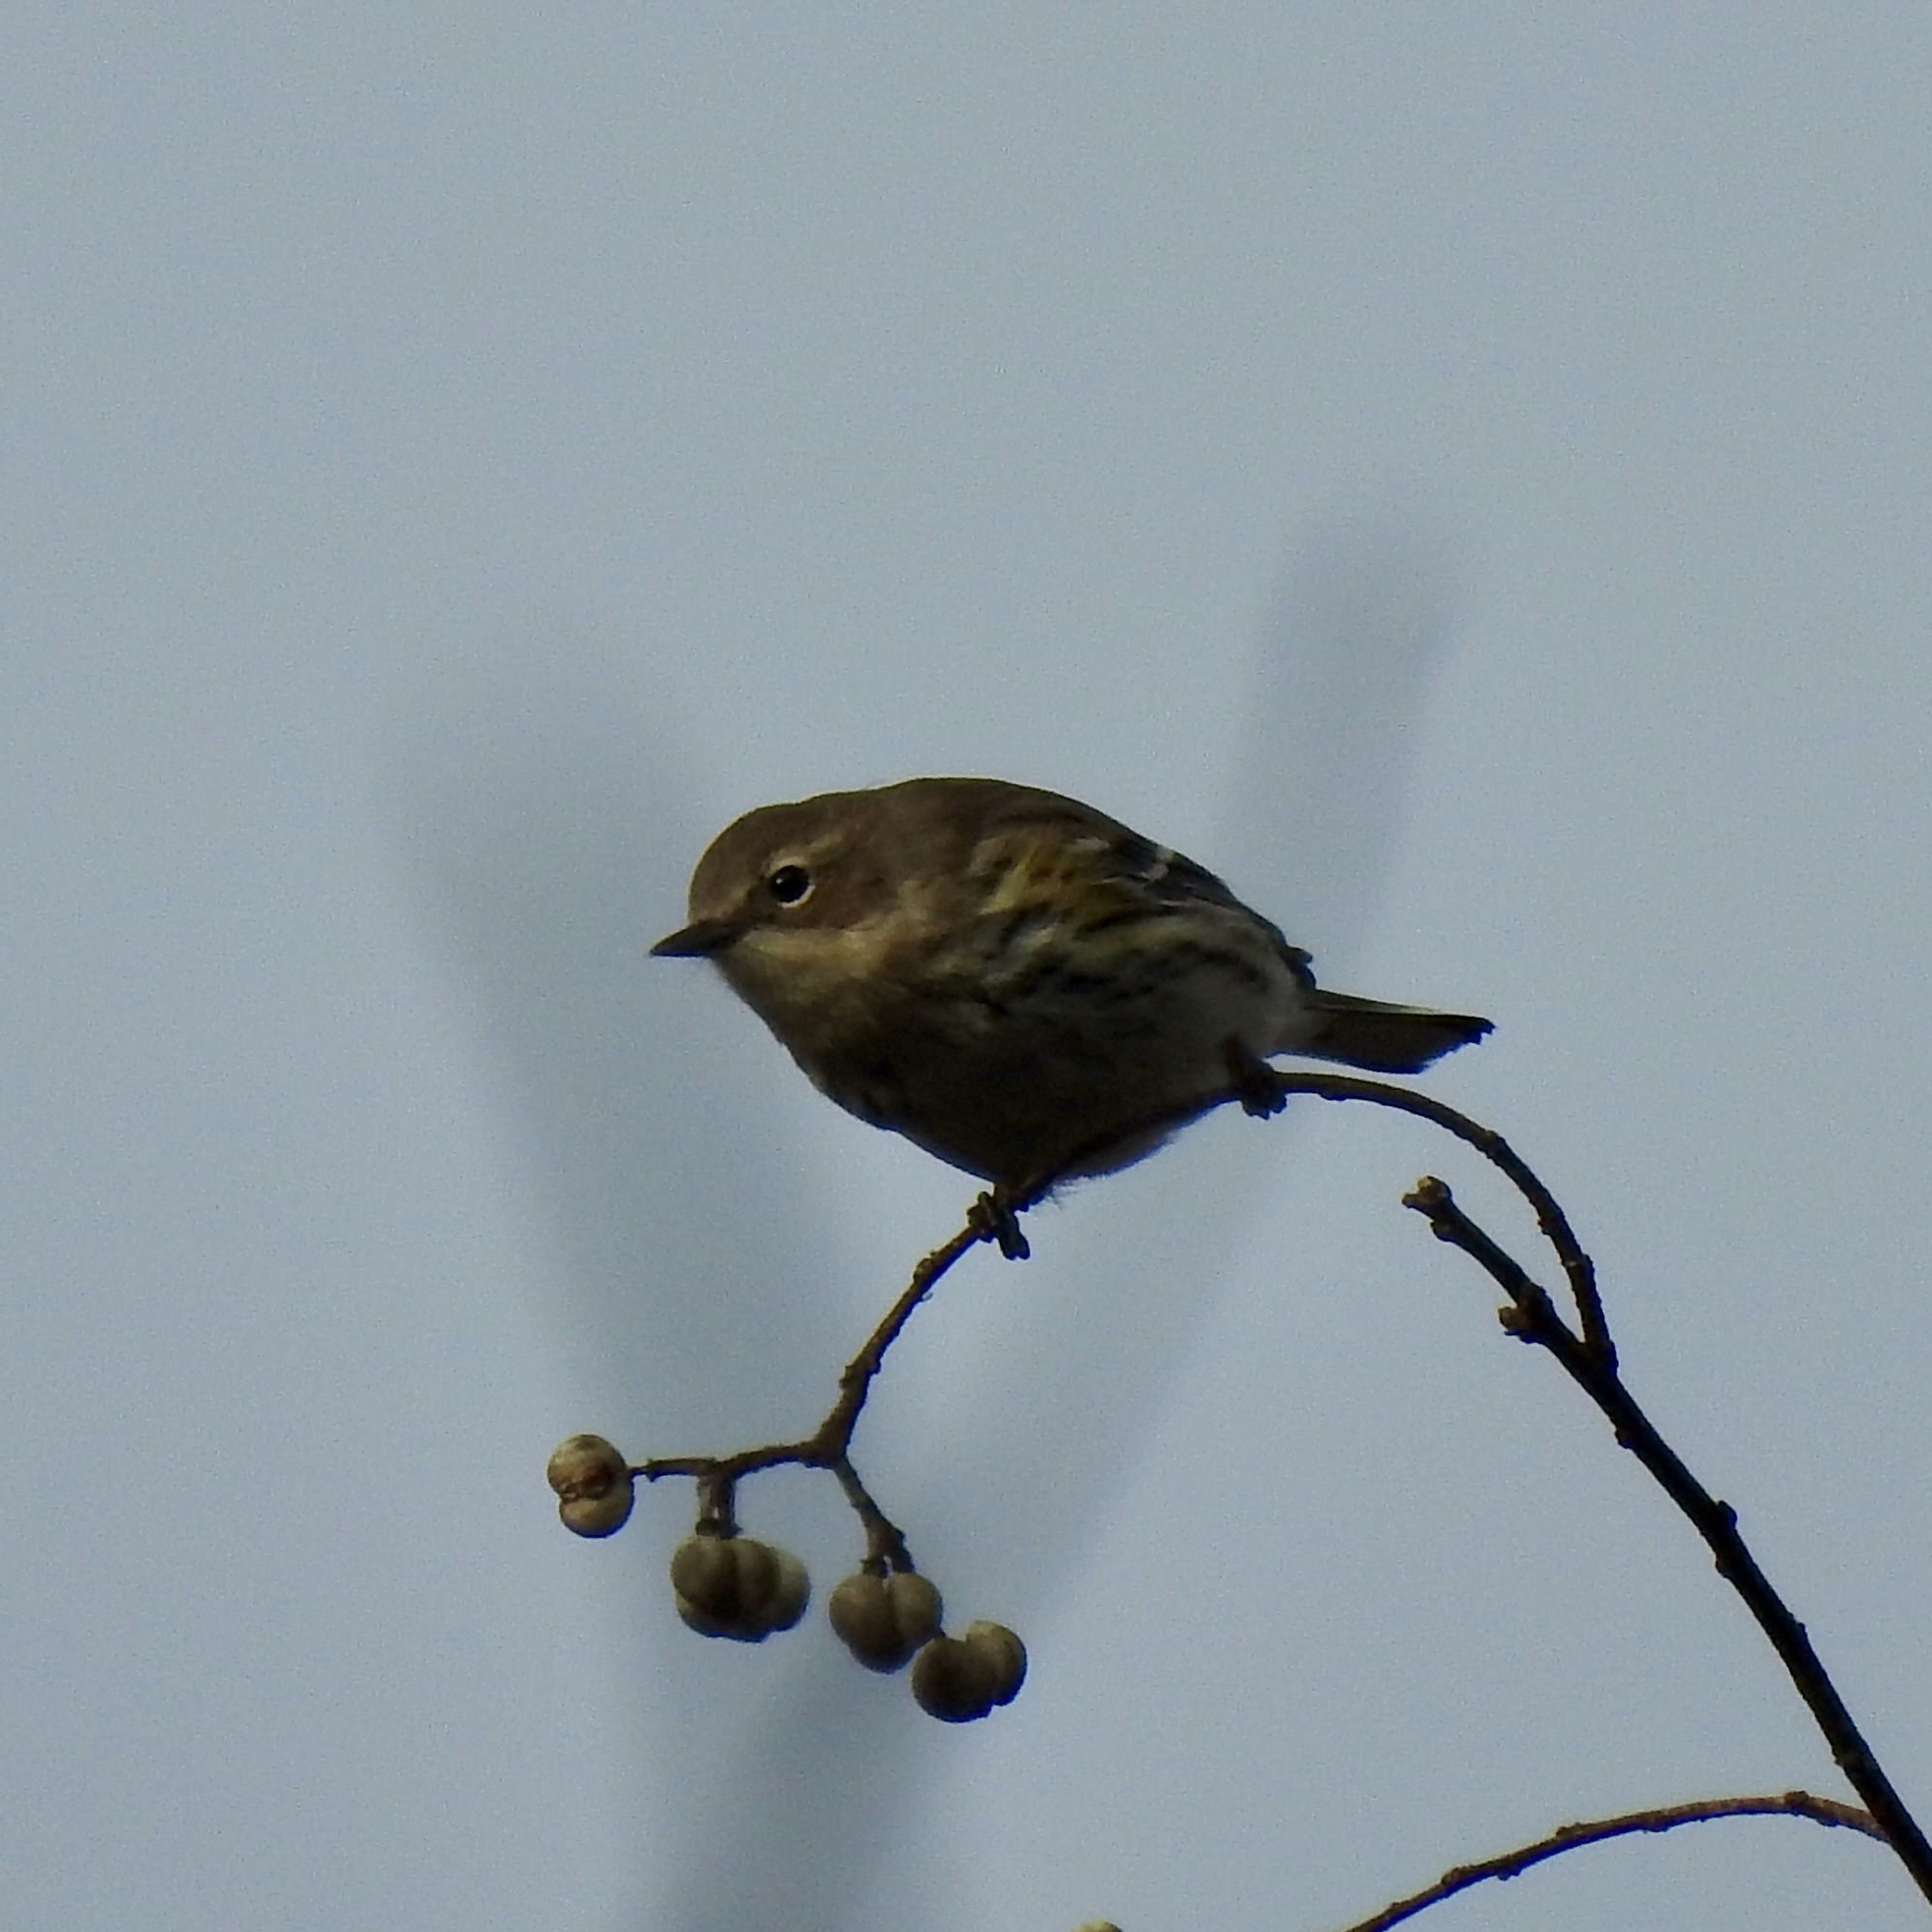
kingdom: Animalia
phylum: Chordata
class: Aves
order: Passeriformes
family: Parulidae
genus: Setophaga
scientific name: Setophaga coronata
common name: Myrtle warbler
